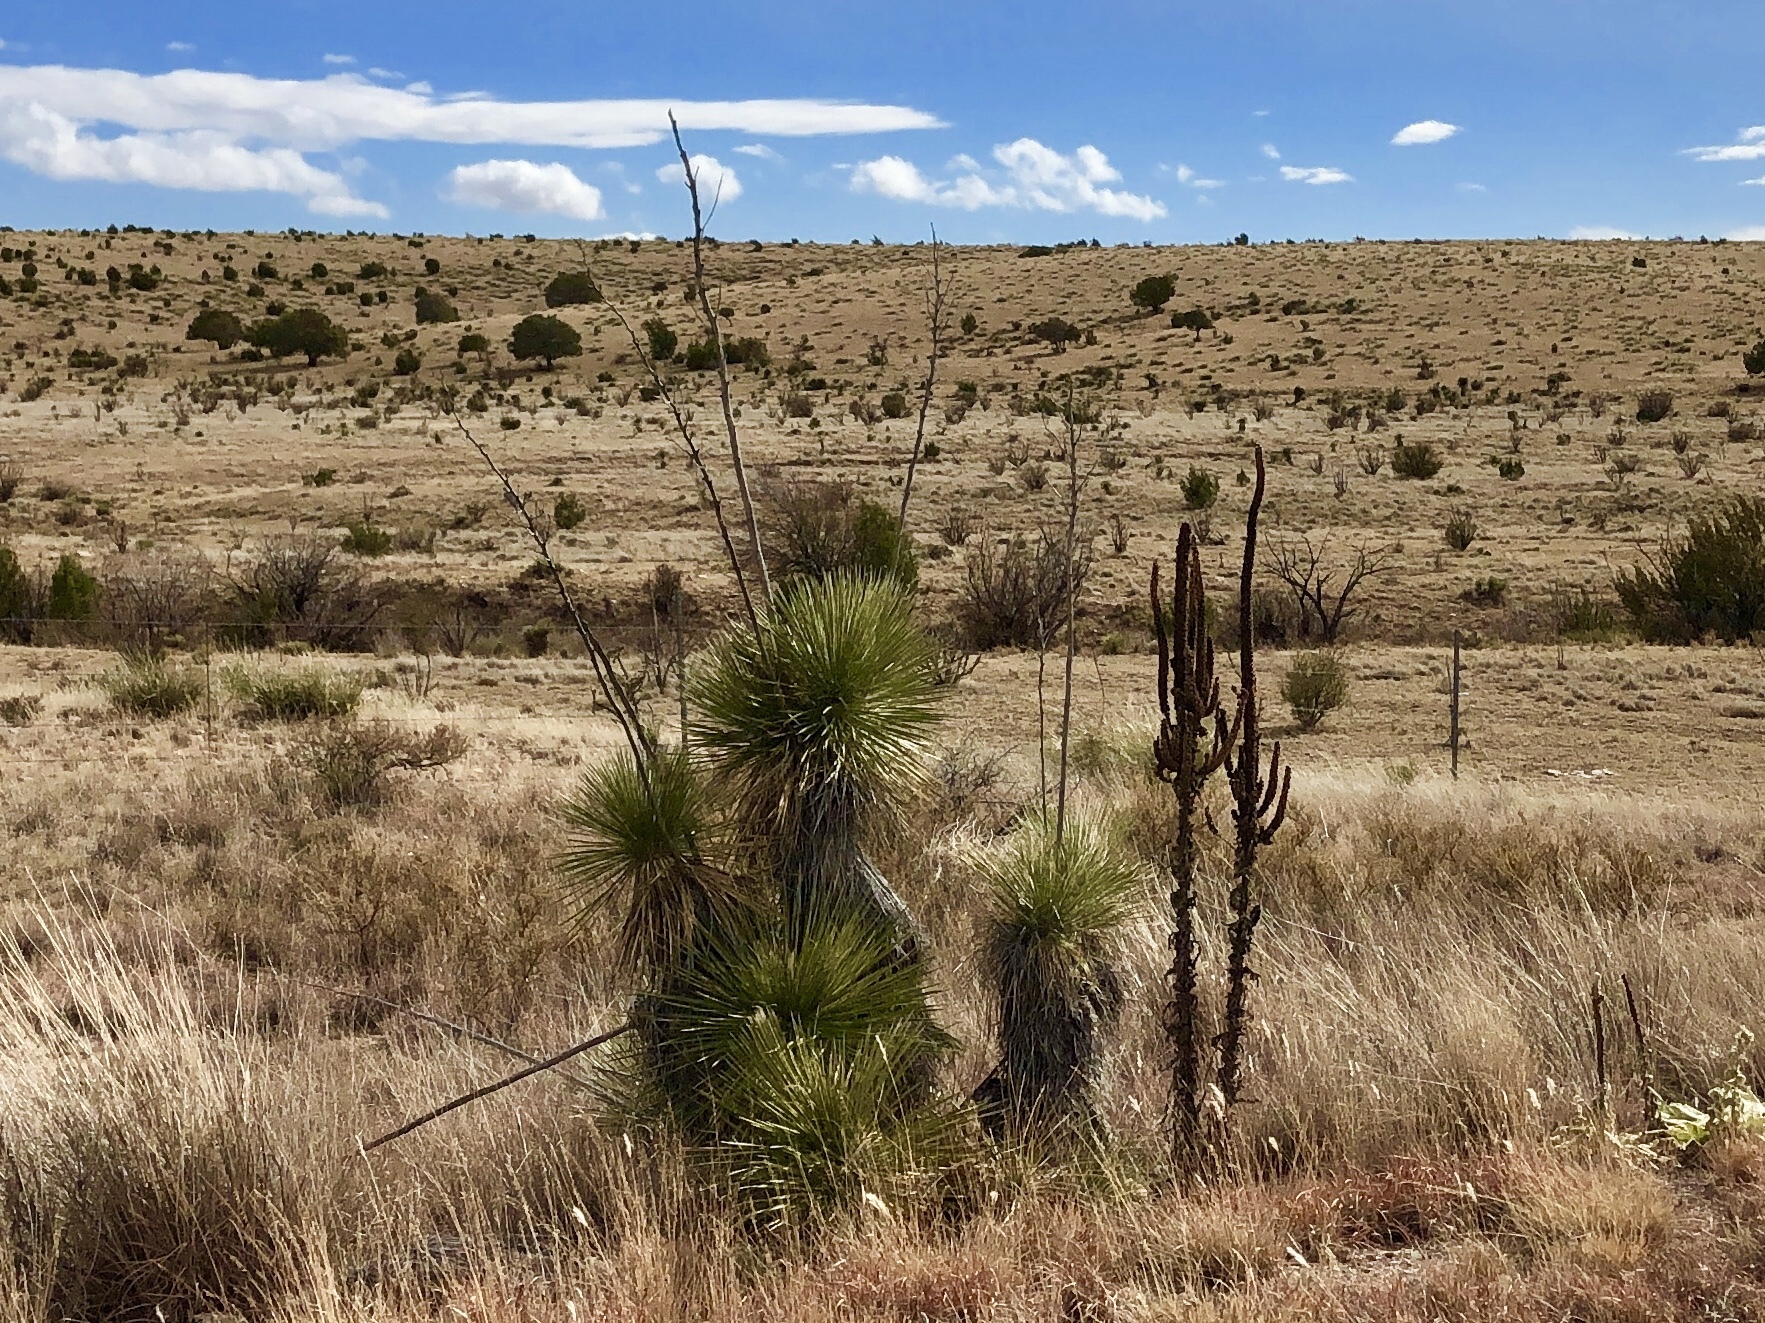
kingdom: Plantae
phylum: Tracheophyta
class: Liliopsida
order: Asparagales
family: Asparagaceae
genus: Yucca
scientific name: Yucca elata
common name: Palmella
